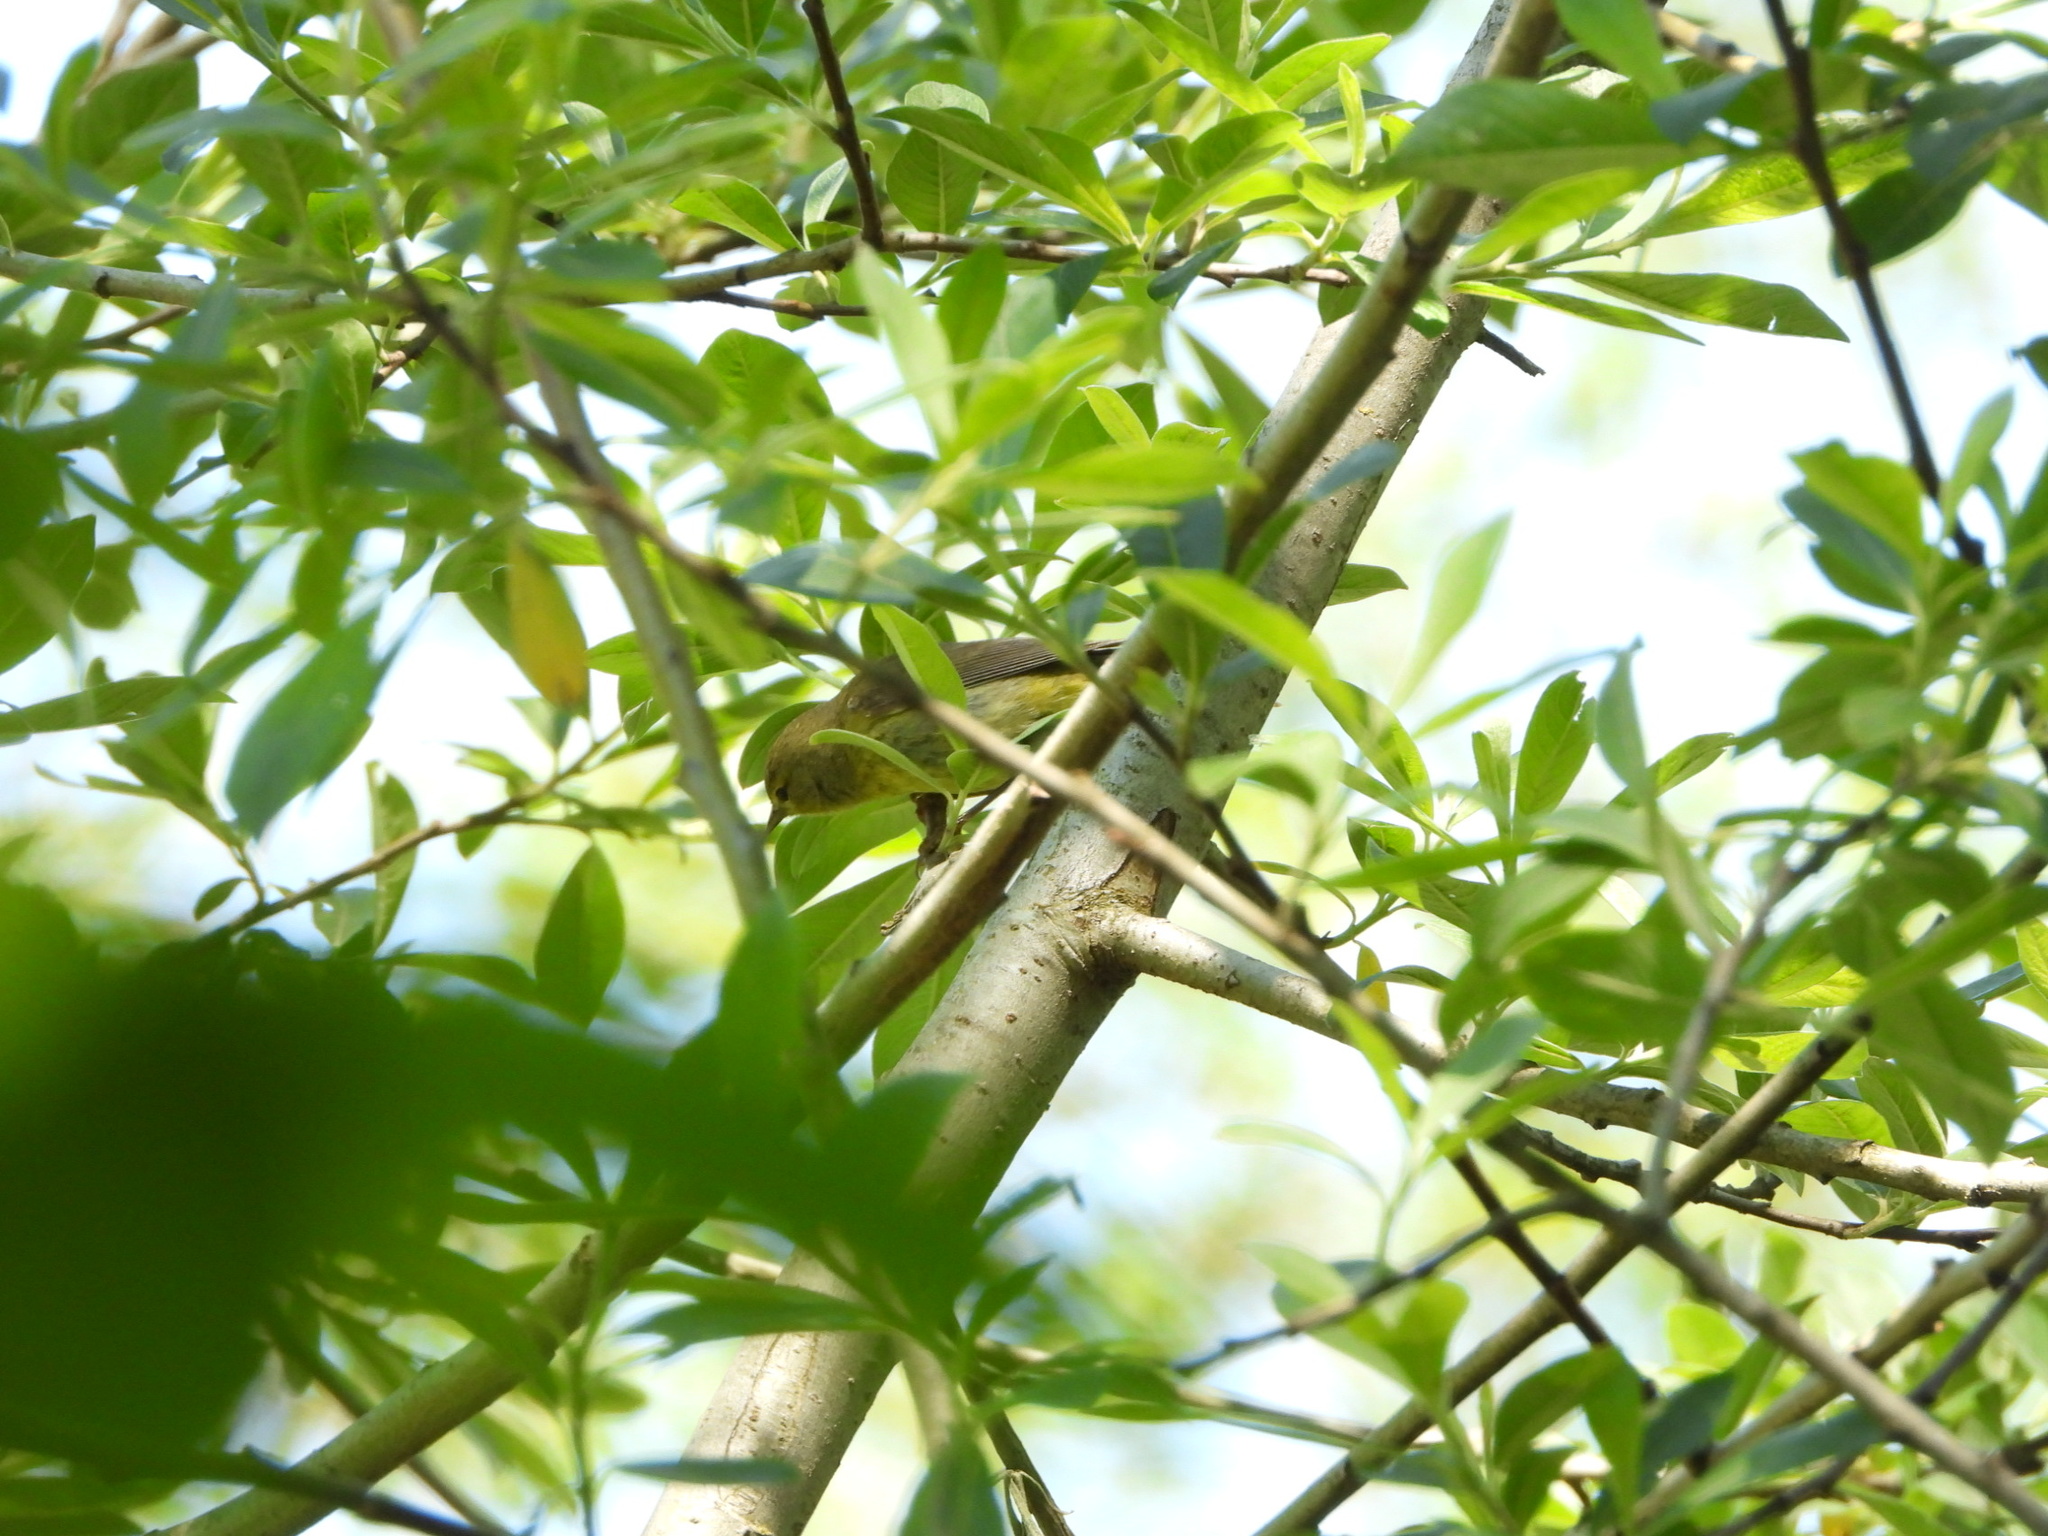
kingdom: Animalia
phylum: Chordata
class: Aves
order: Passeriformes
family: Parulidae
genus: Leiothlypis
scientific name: Leiothlypis celata
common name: Orange-crowned warbler
